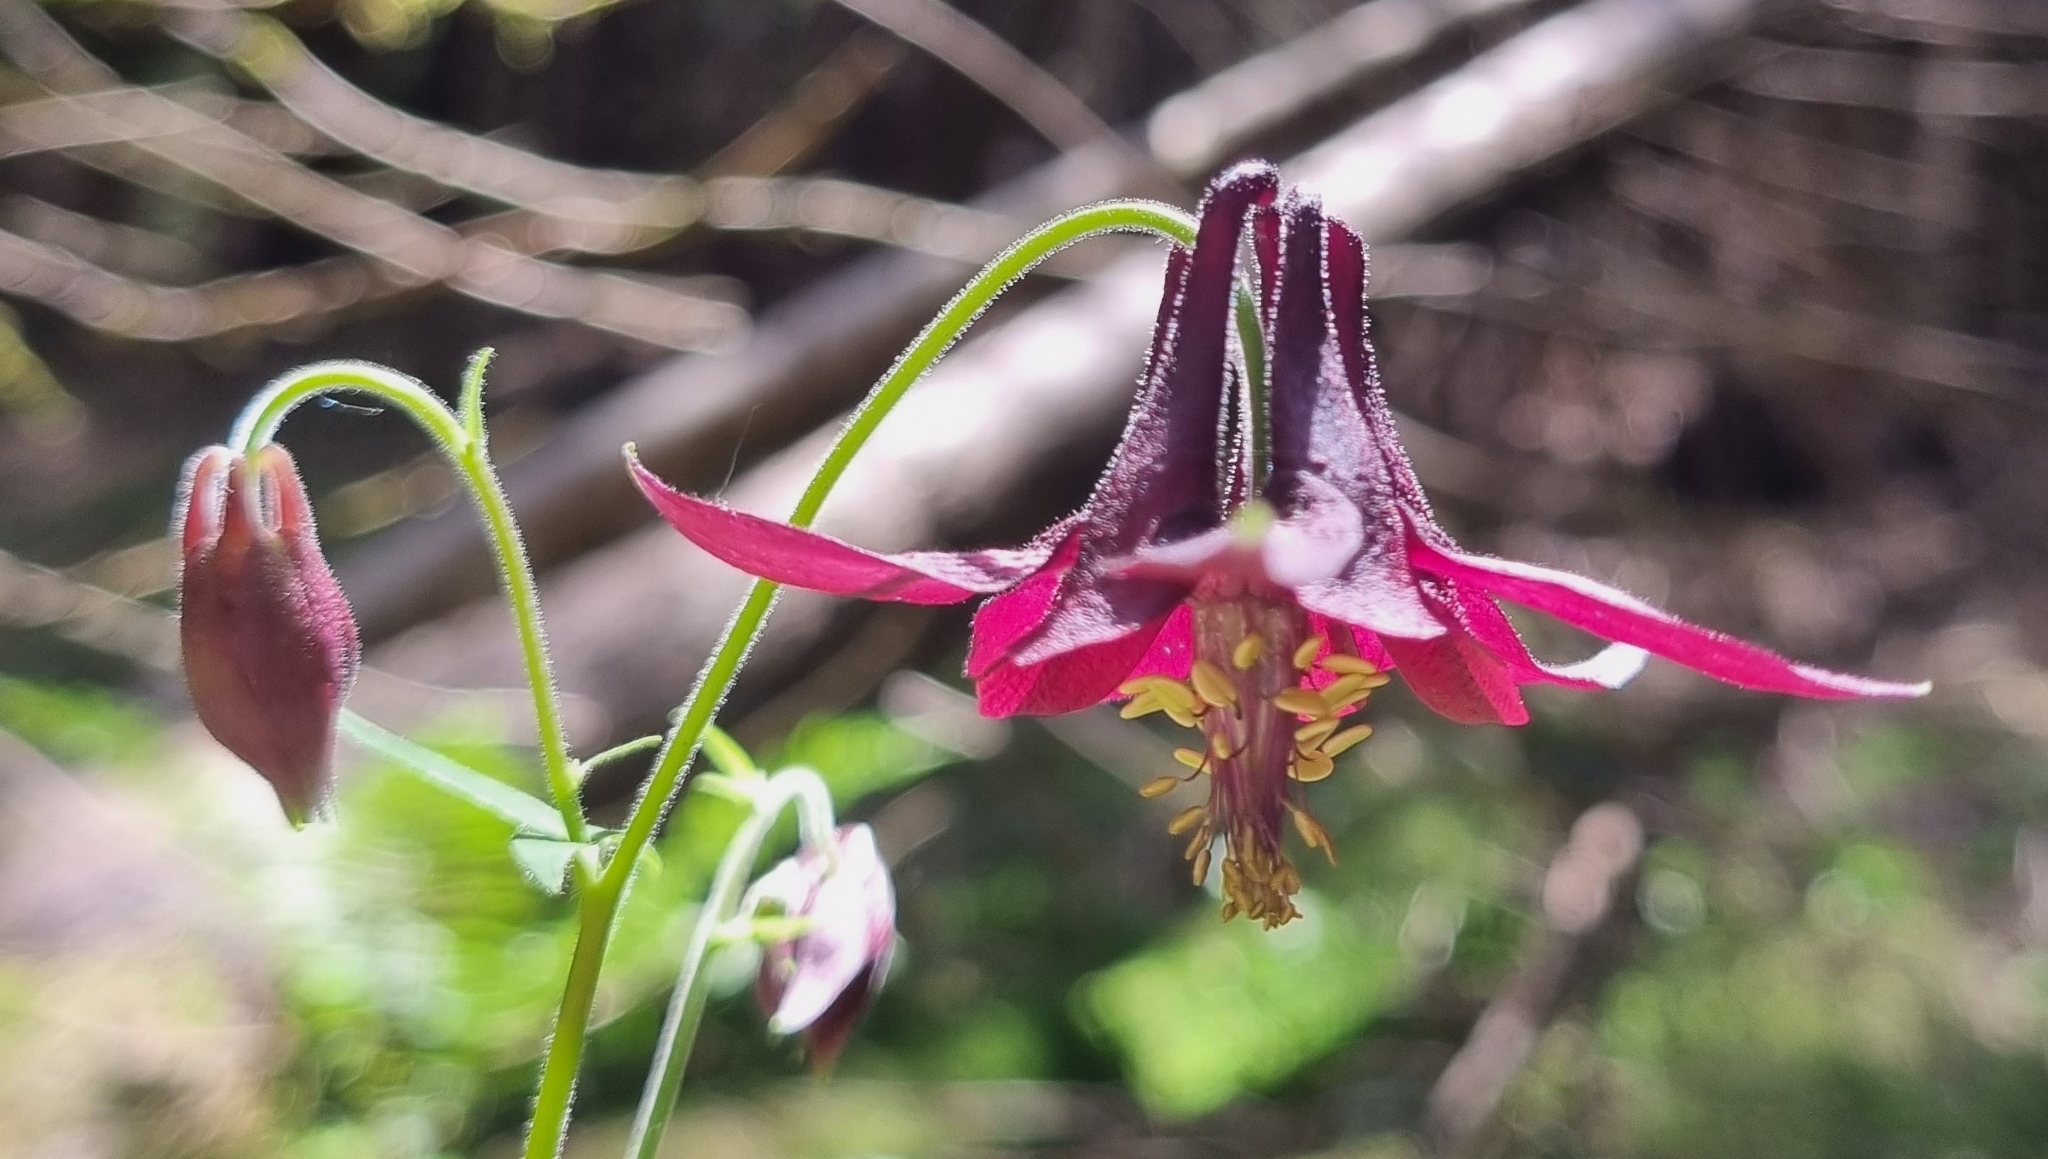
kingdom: Plantae
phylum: Tracheophyta
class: Magnoliopsida
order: Ranunculales
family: Ranunculaceae
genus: Aquilegia
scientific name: Aquilegia atrata
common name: Dark columbine
